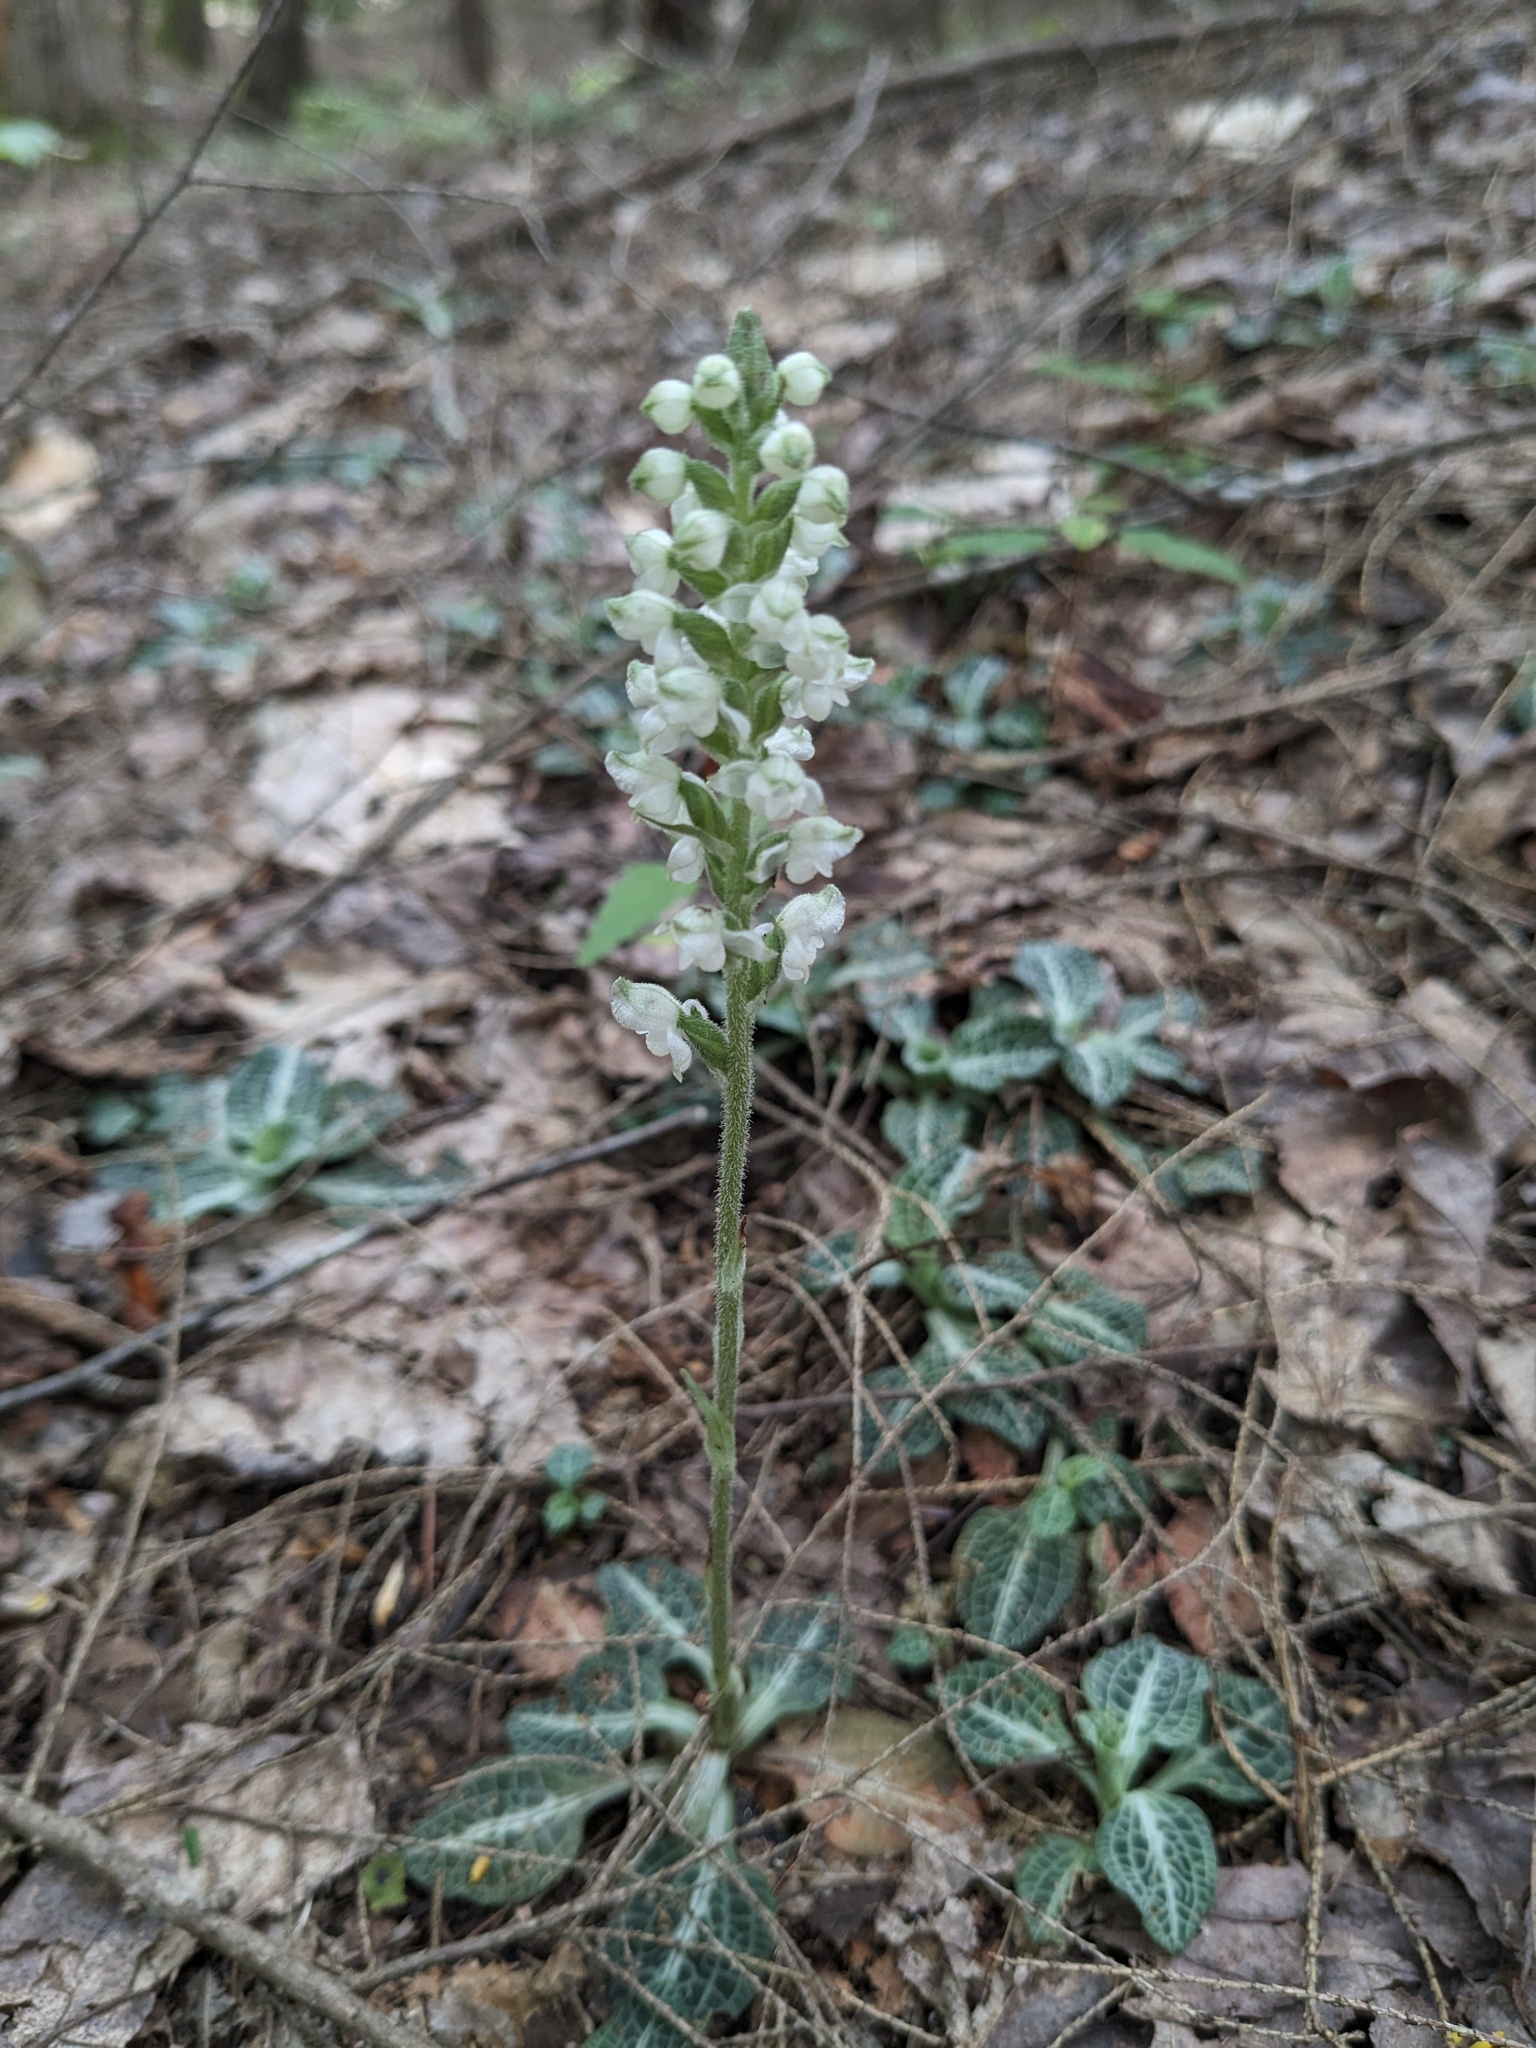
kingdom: Plantae
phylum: Tracheophyta
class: Liliopsida
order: Asparagales
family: Orchidaceae
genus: Goodyera
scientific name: Goodyera pubescens
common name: Downy rattlesnake-plantain
